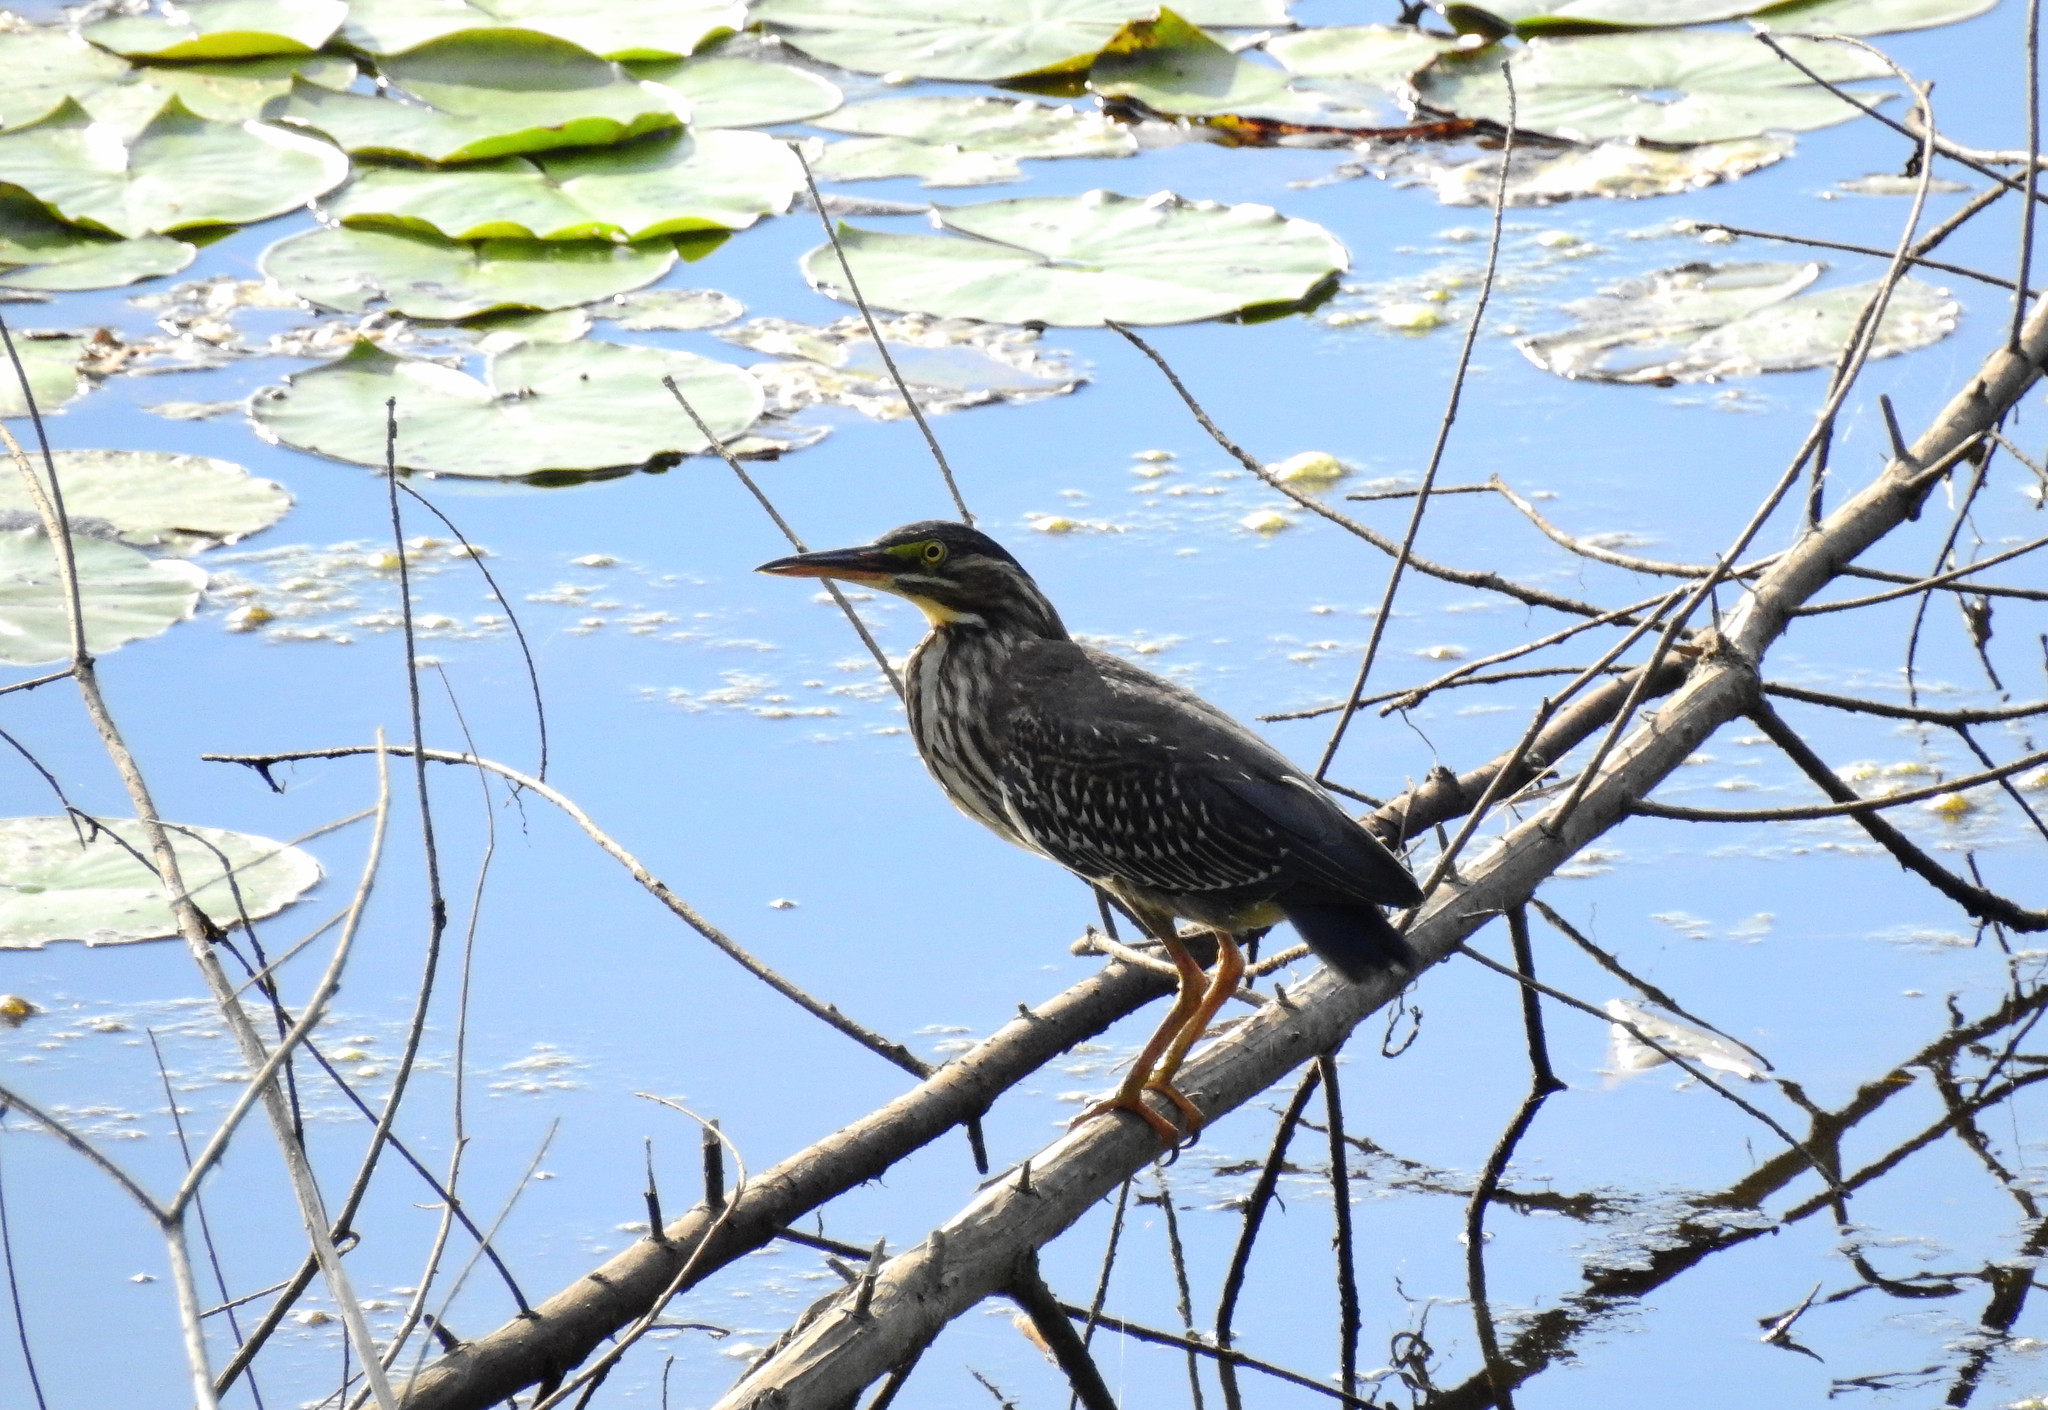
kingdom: Animalia
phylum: Chordata
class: Aves
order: Pelecaniformes
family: Ardeidae
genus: Butorides
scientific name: Butorides virescens
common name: Green heron
